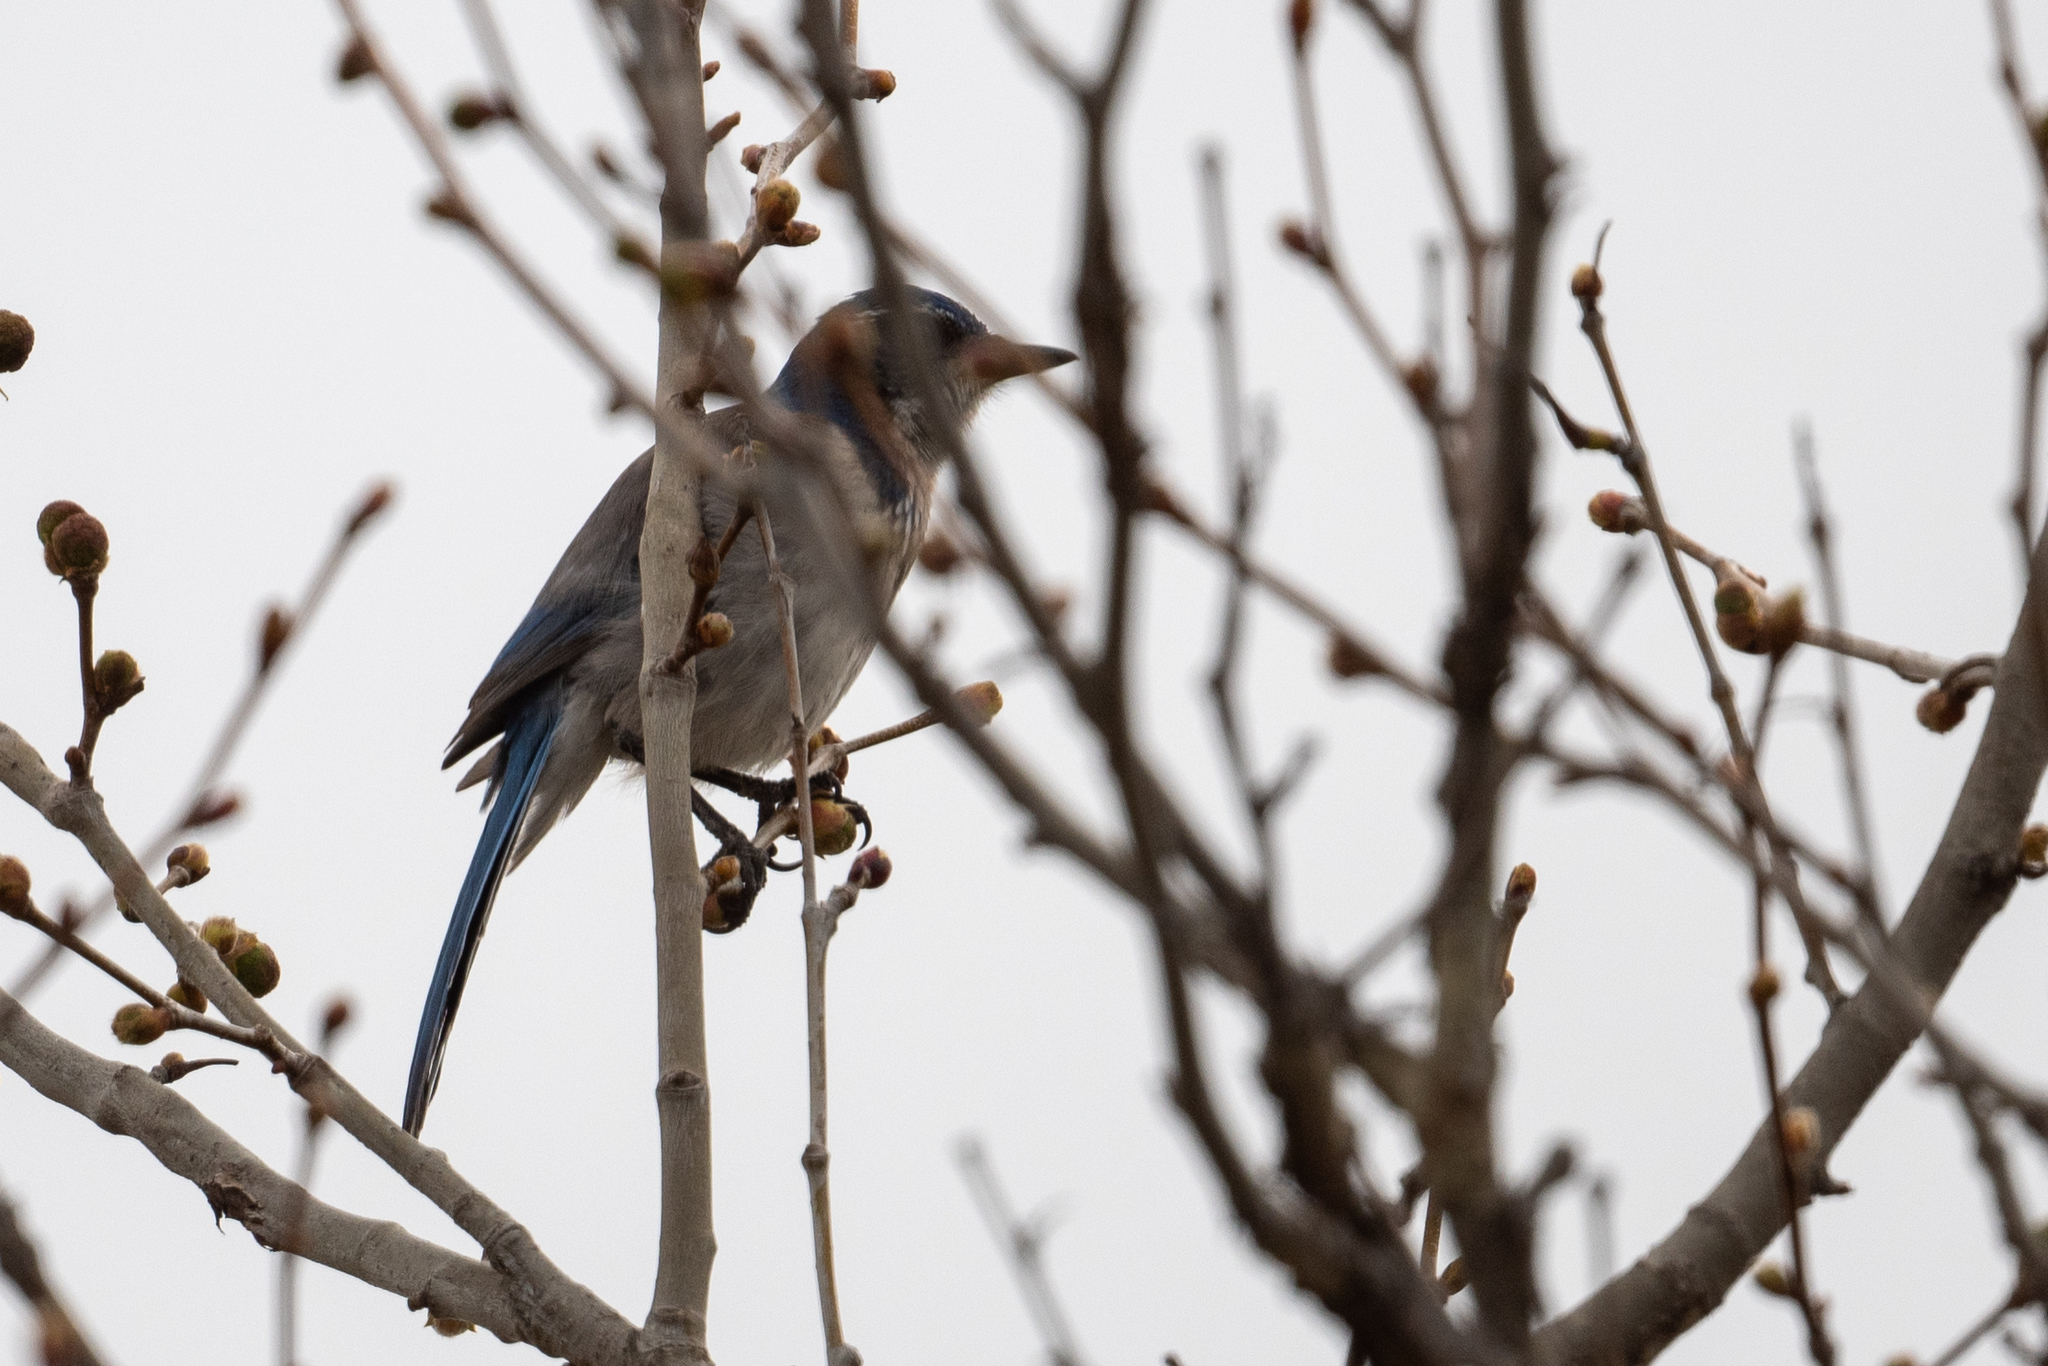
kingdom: Animalia
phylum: Chordata
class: Aves
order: Passeriformes
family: Corvidae
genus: Aphelocoma
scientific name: Aphelocoma californica
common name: California scrub-jay
